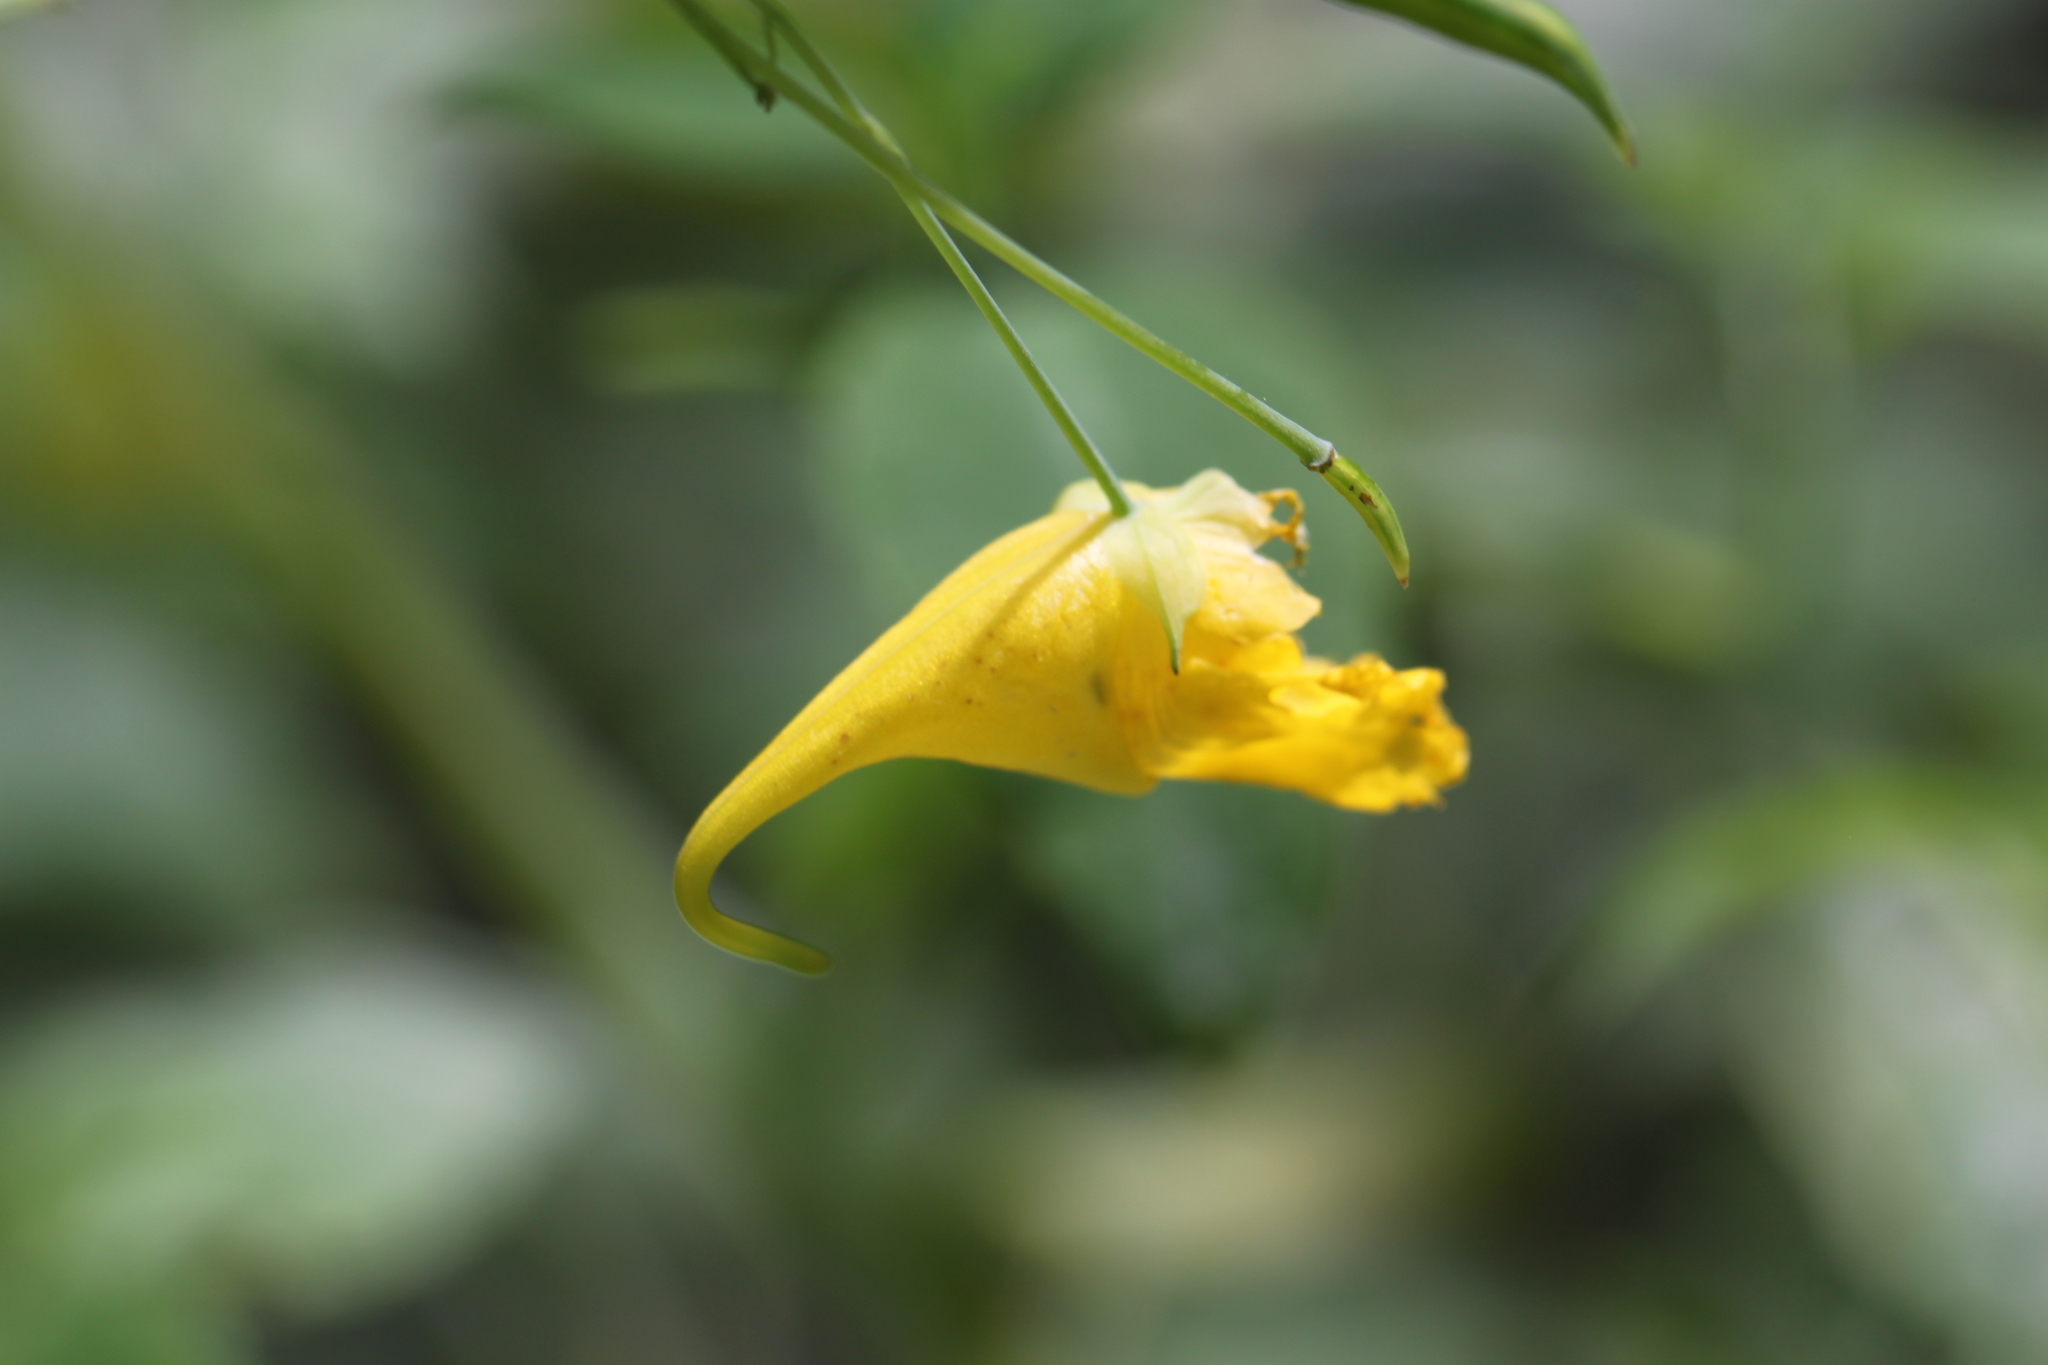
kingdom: Plantae
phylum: Tracheophyta
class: Magnoliopsida
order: Ericales
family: Balsaminaceae
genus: Impatiens
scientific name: Impatiens noli-tangere
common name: Touch-me-not balsam
